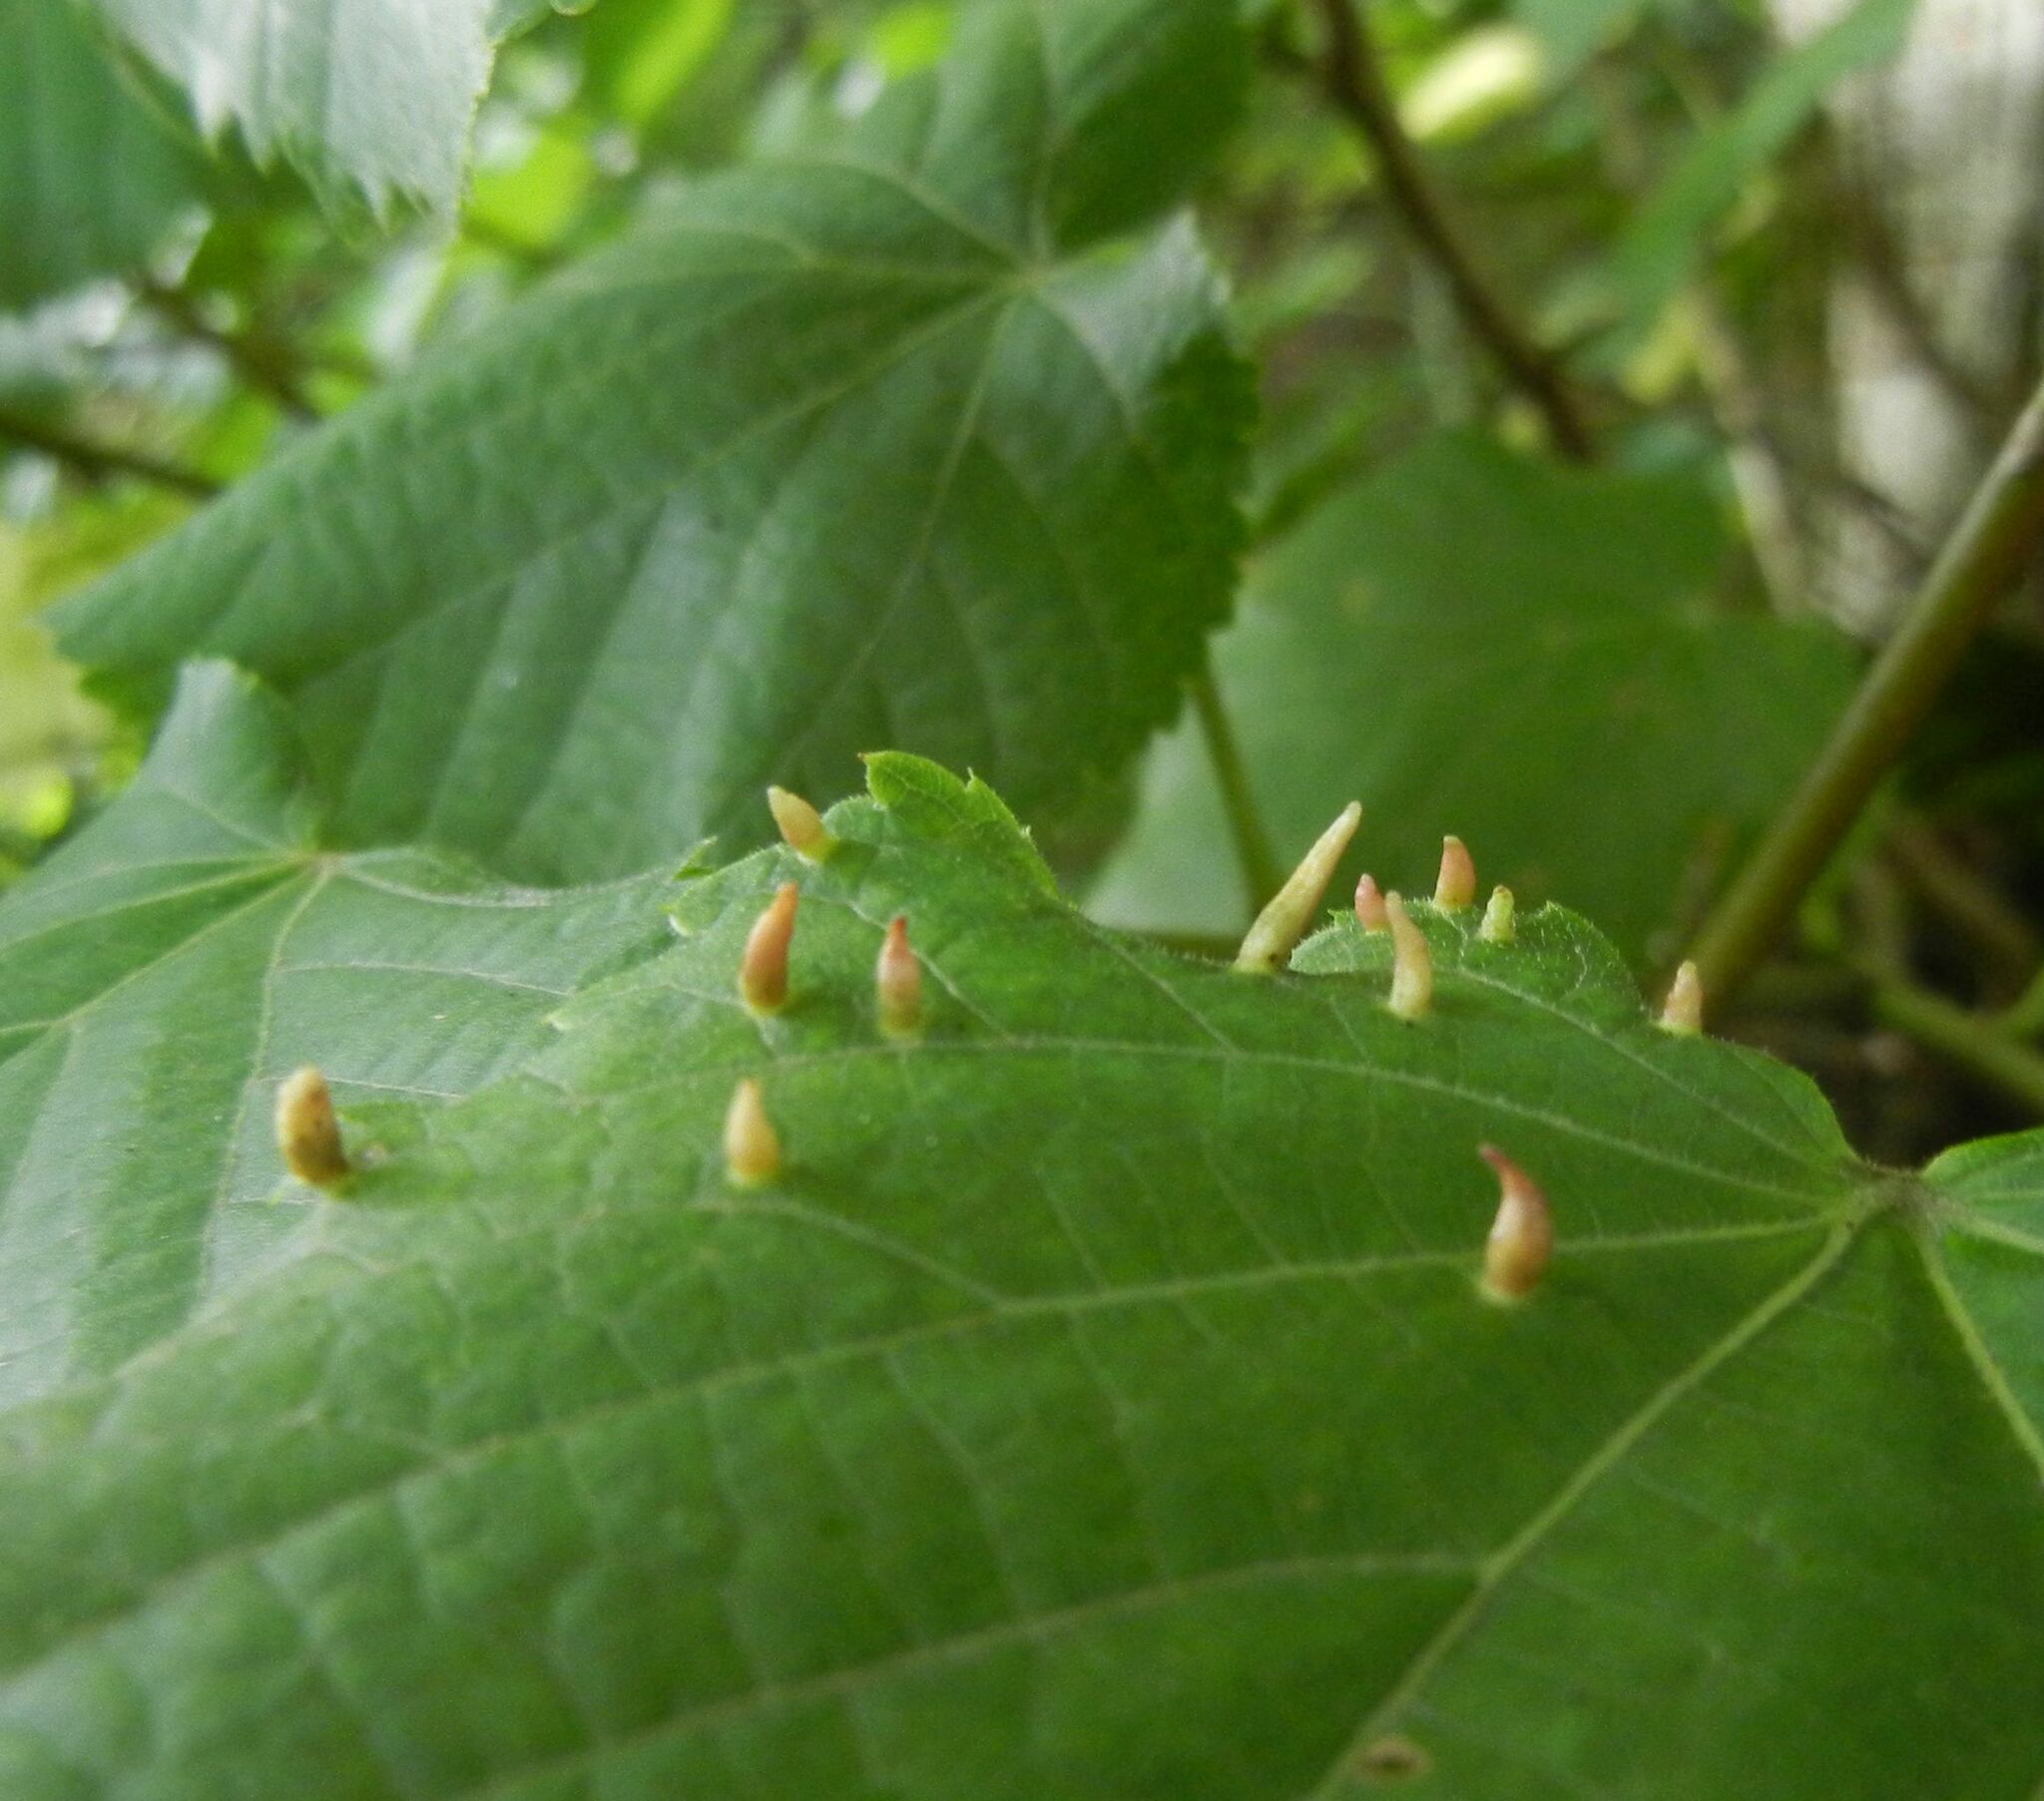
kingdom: Animalia
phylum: Arthropoda
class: Arachnida
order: Trombidiformes
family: Eriophyidae
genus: Eriophyes
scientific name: Eriophyes tiliae
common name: Red nail gall mite
